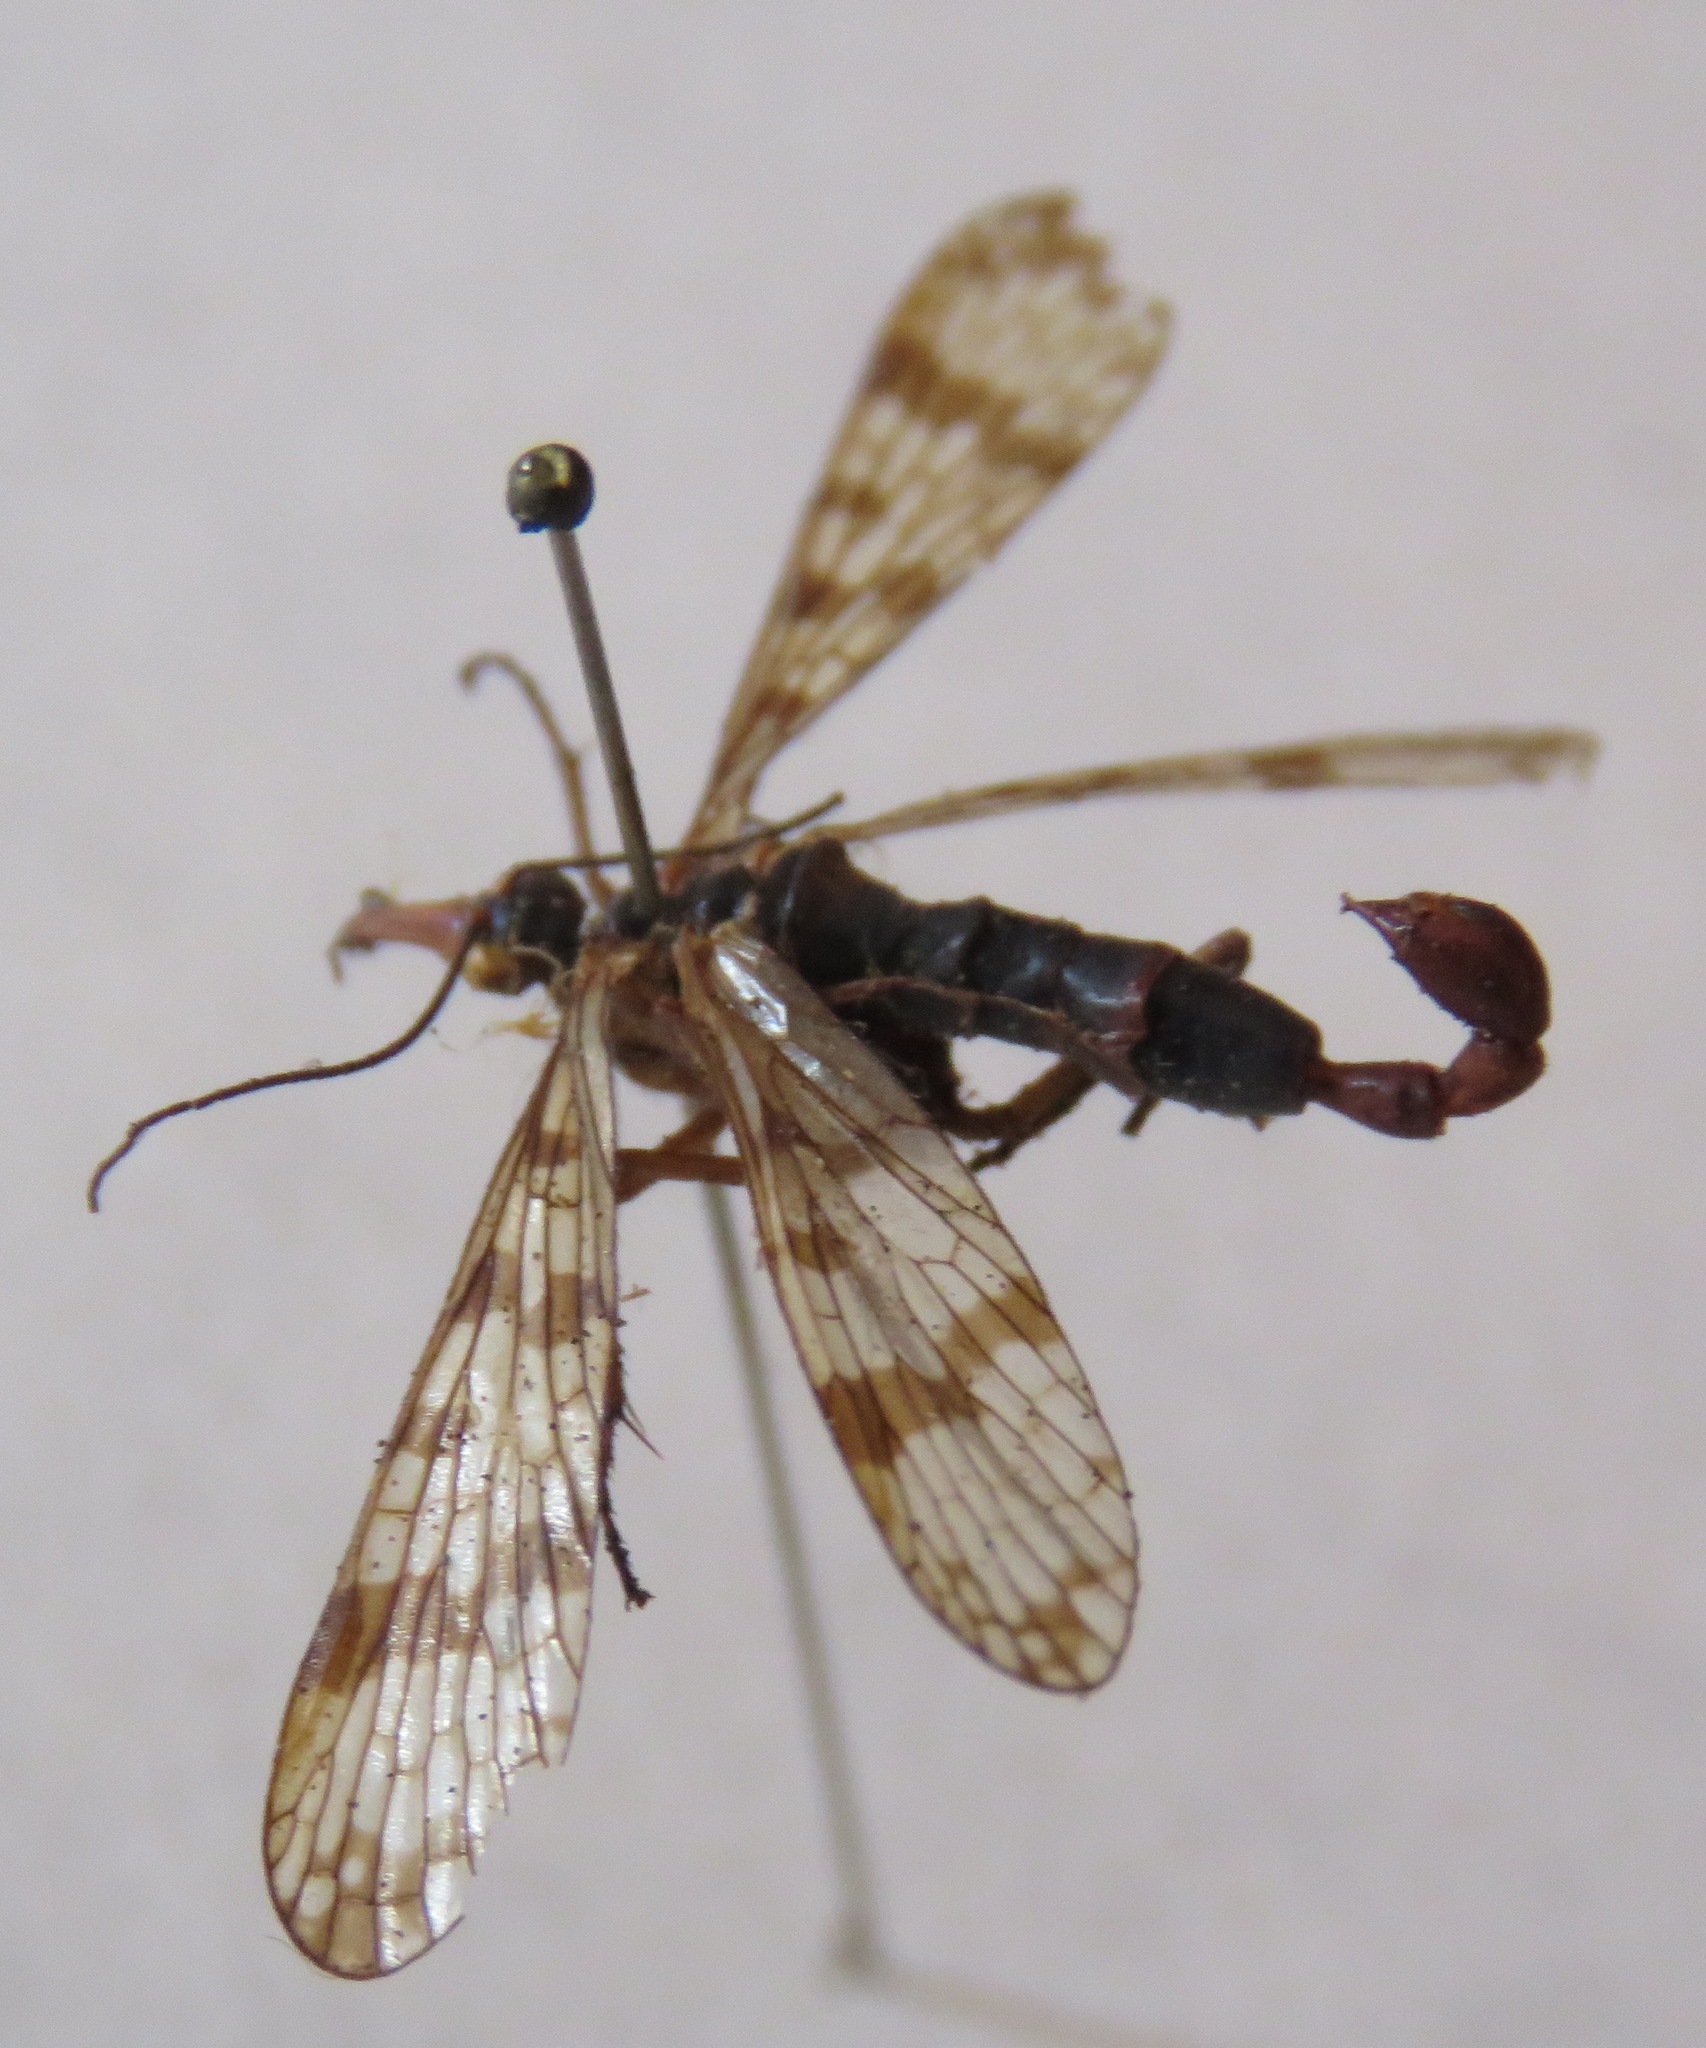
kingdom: Animalia
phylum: Arthropoda
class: Insecta
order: Mecoptera
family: Panorpidae
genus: Panorpa
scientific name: Panorpa communis
